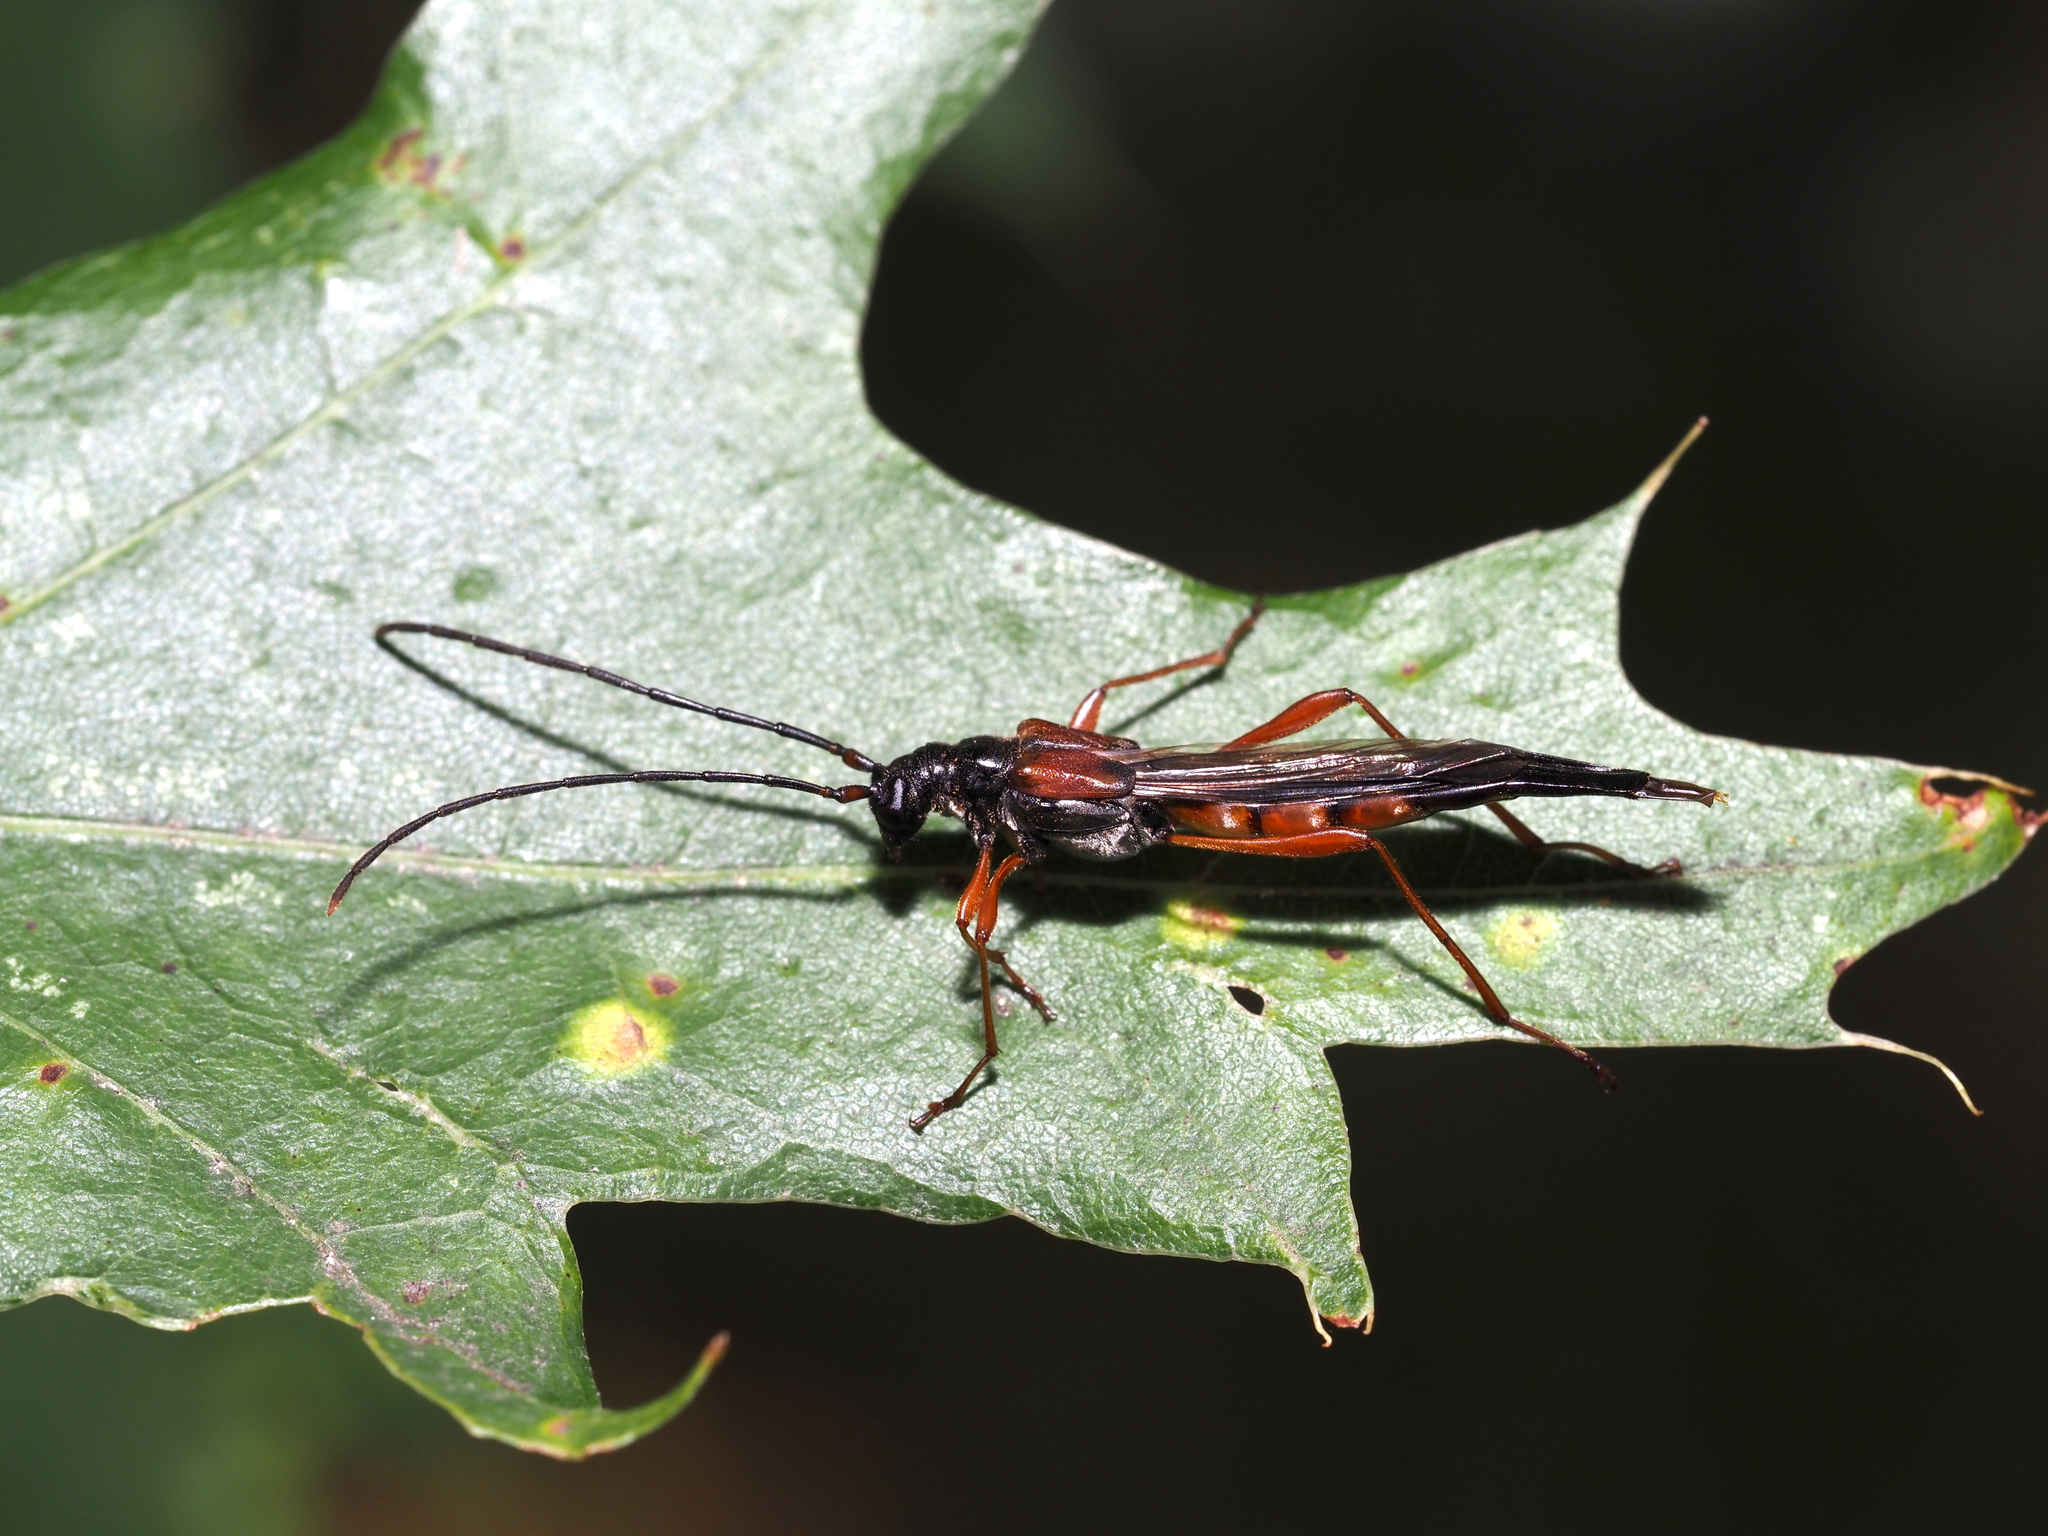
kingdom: Animalia
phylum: Arthropoda
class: Insecta
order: Coleoptera
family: Cerambycidae
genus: Necydalis
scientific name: Necydalis mellita
